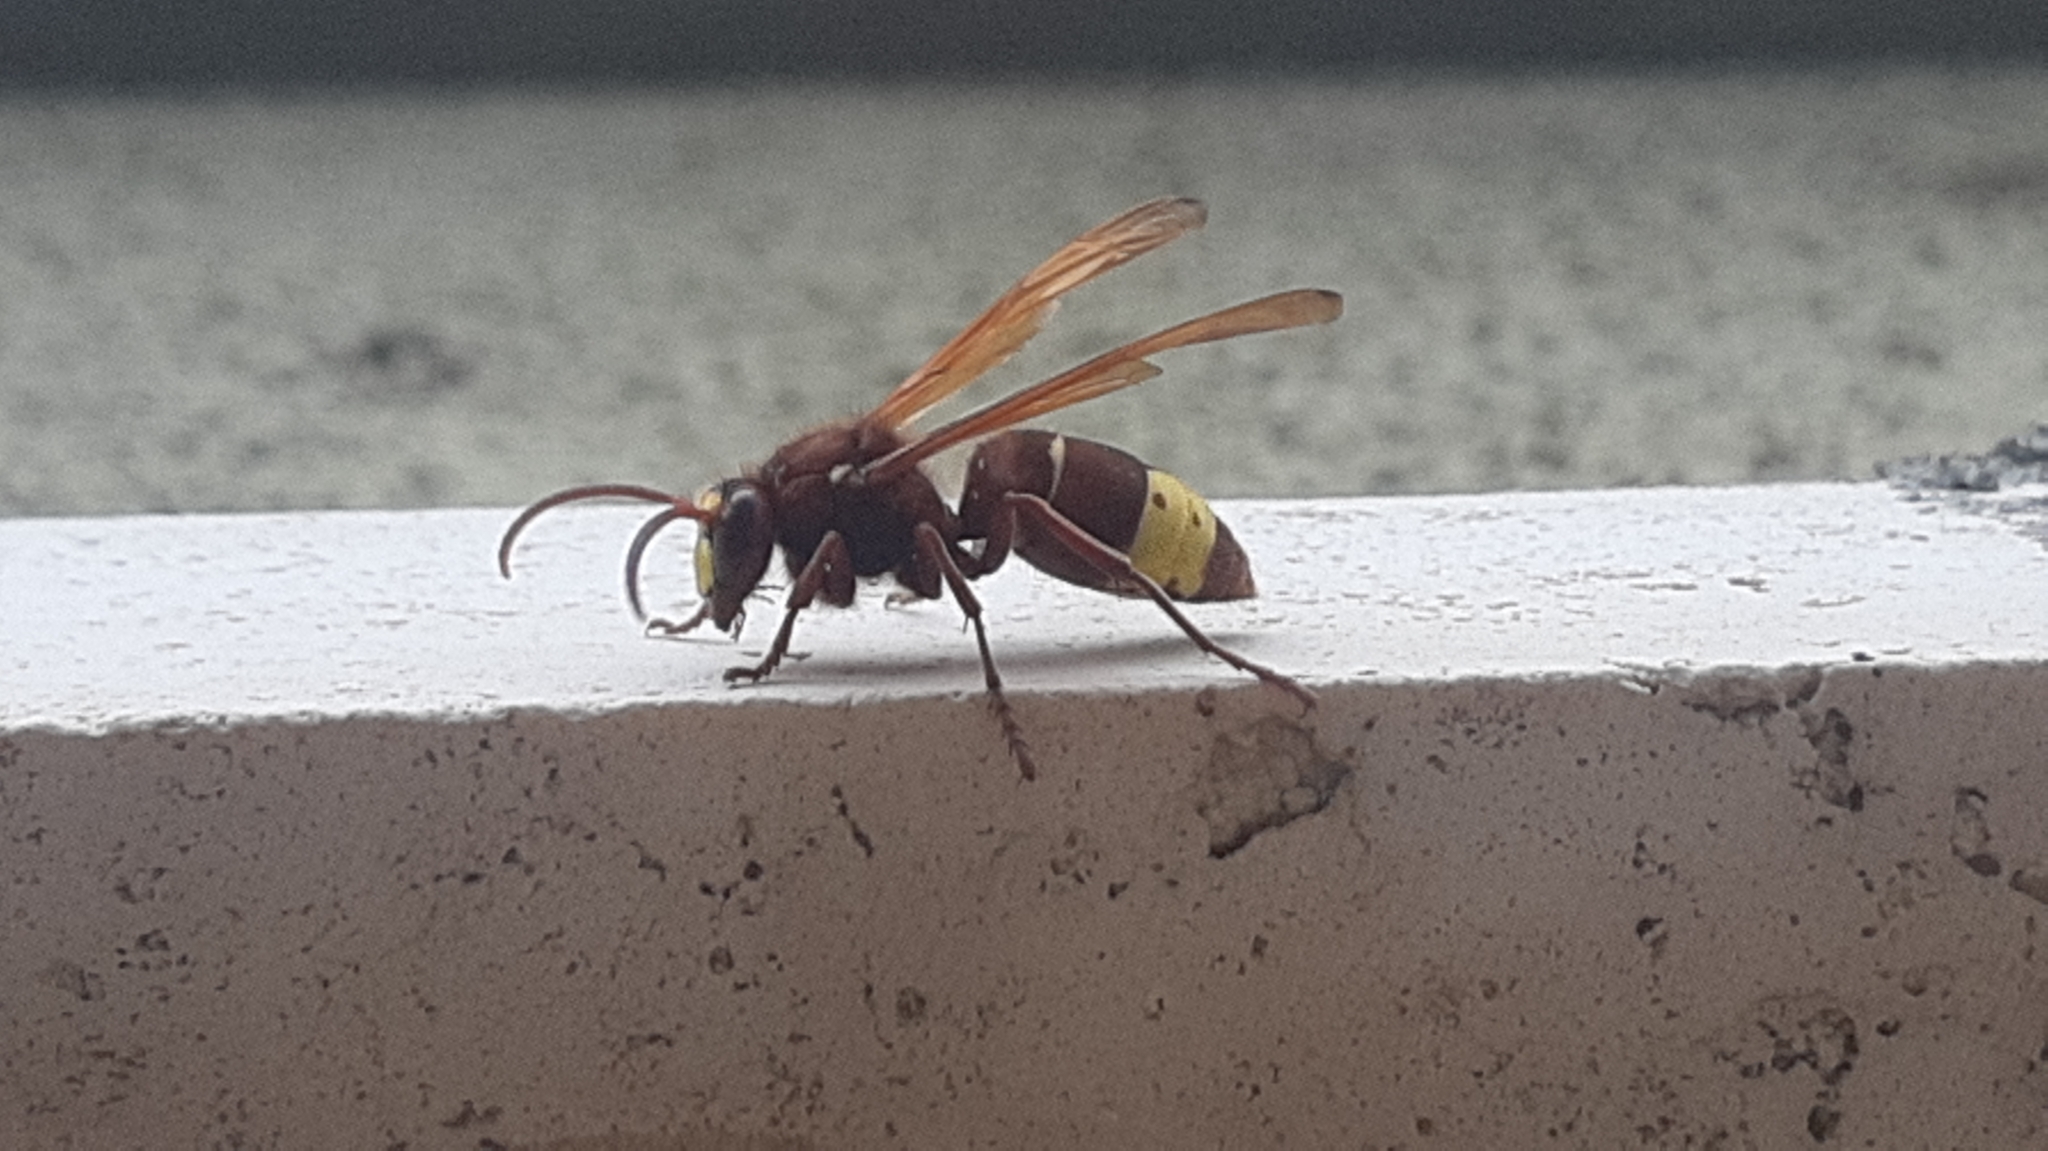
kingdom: Animalia
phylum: Arthropoda
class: Insecta
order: Hymenoptera
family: Vespidae
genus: Vespa
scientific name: Vespa orientalis
